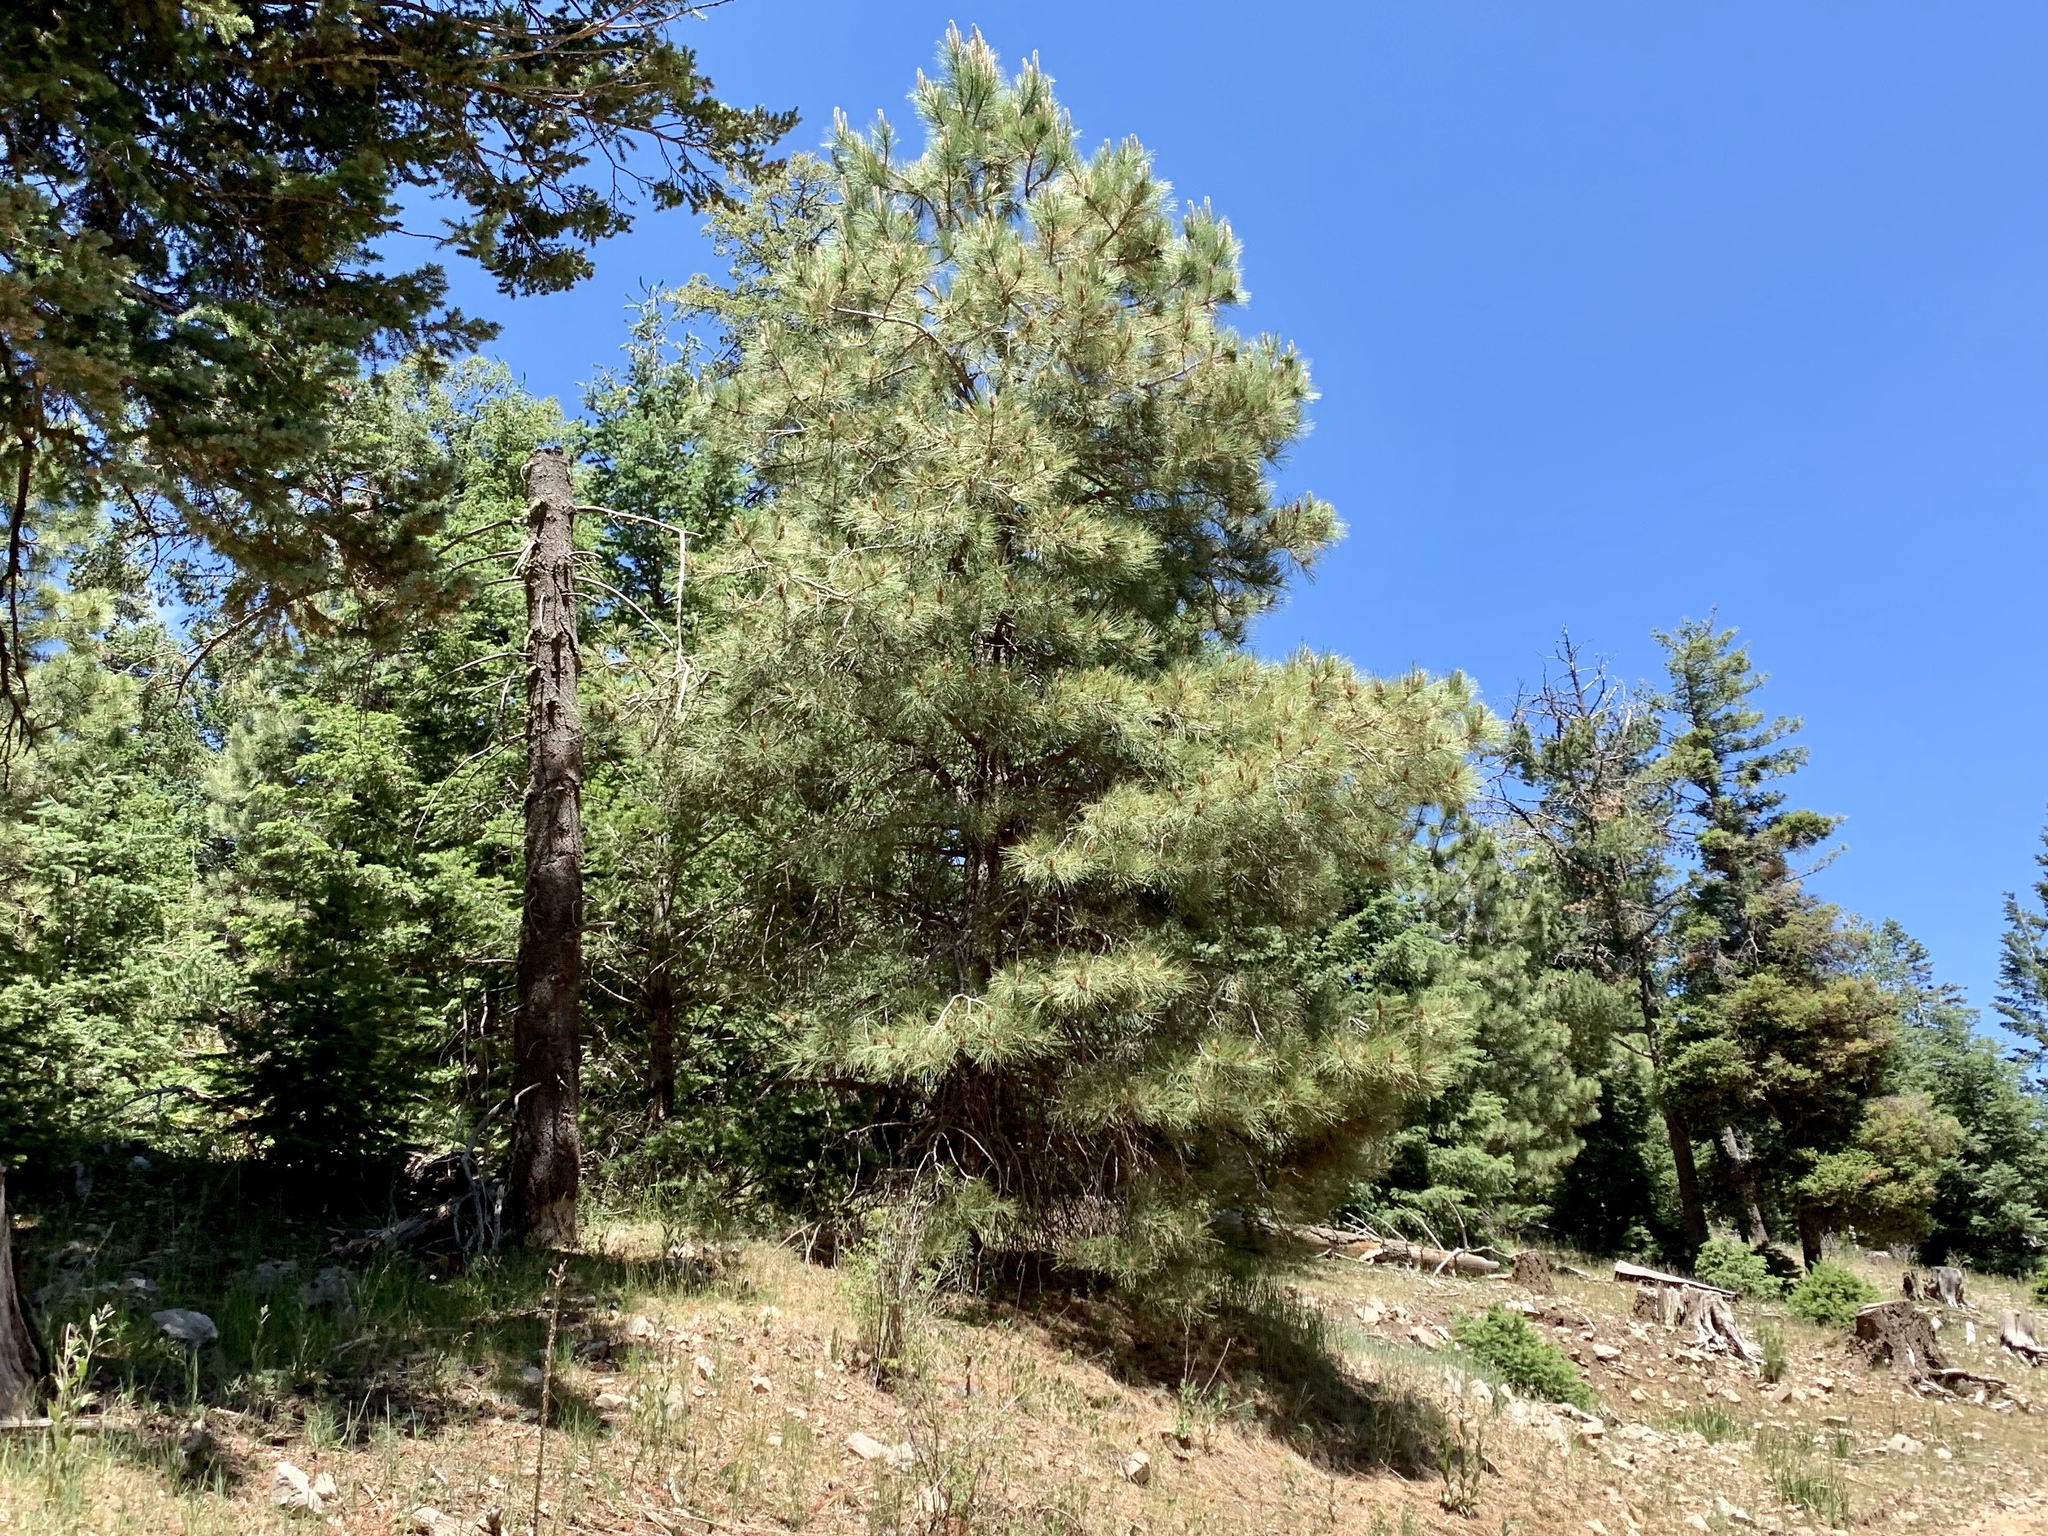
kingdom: Plantae
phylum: Tracheophyta
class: Pinopsida
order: Pinales
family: Pinaceae
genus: Pinus
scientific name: Pinus ponderosa
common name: Western yellow-pine
